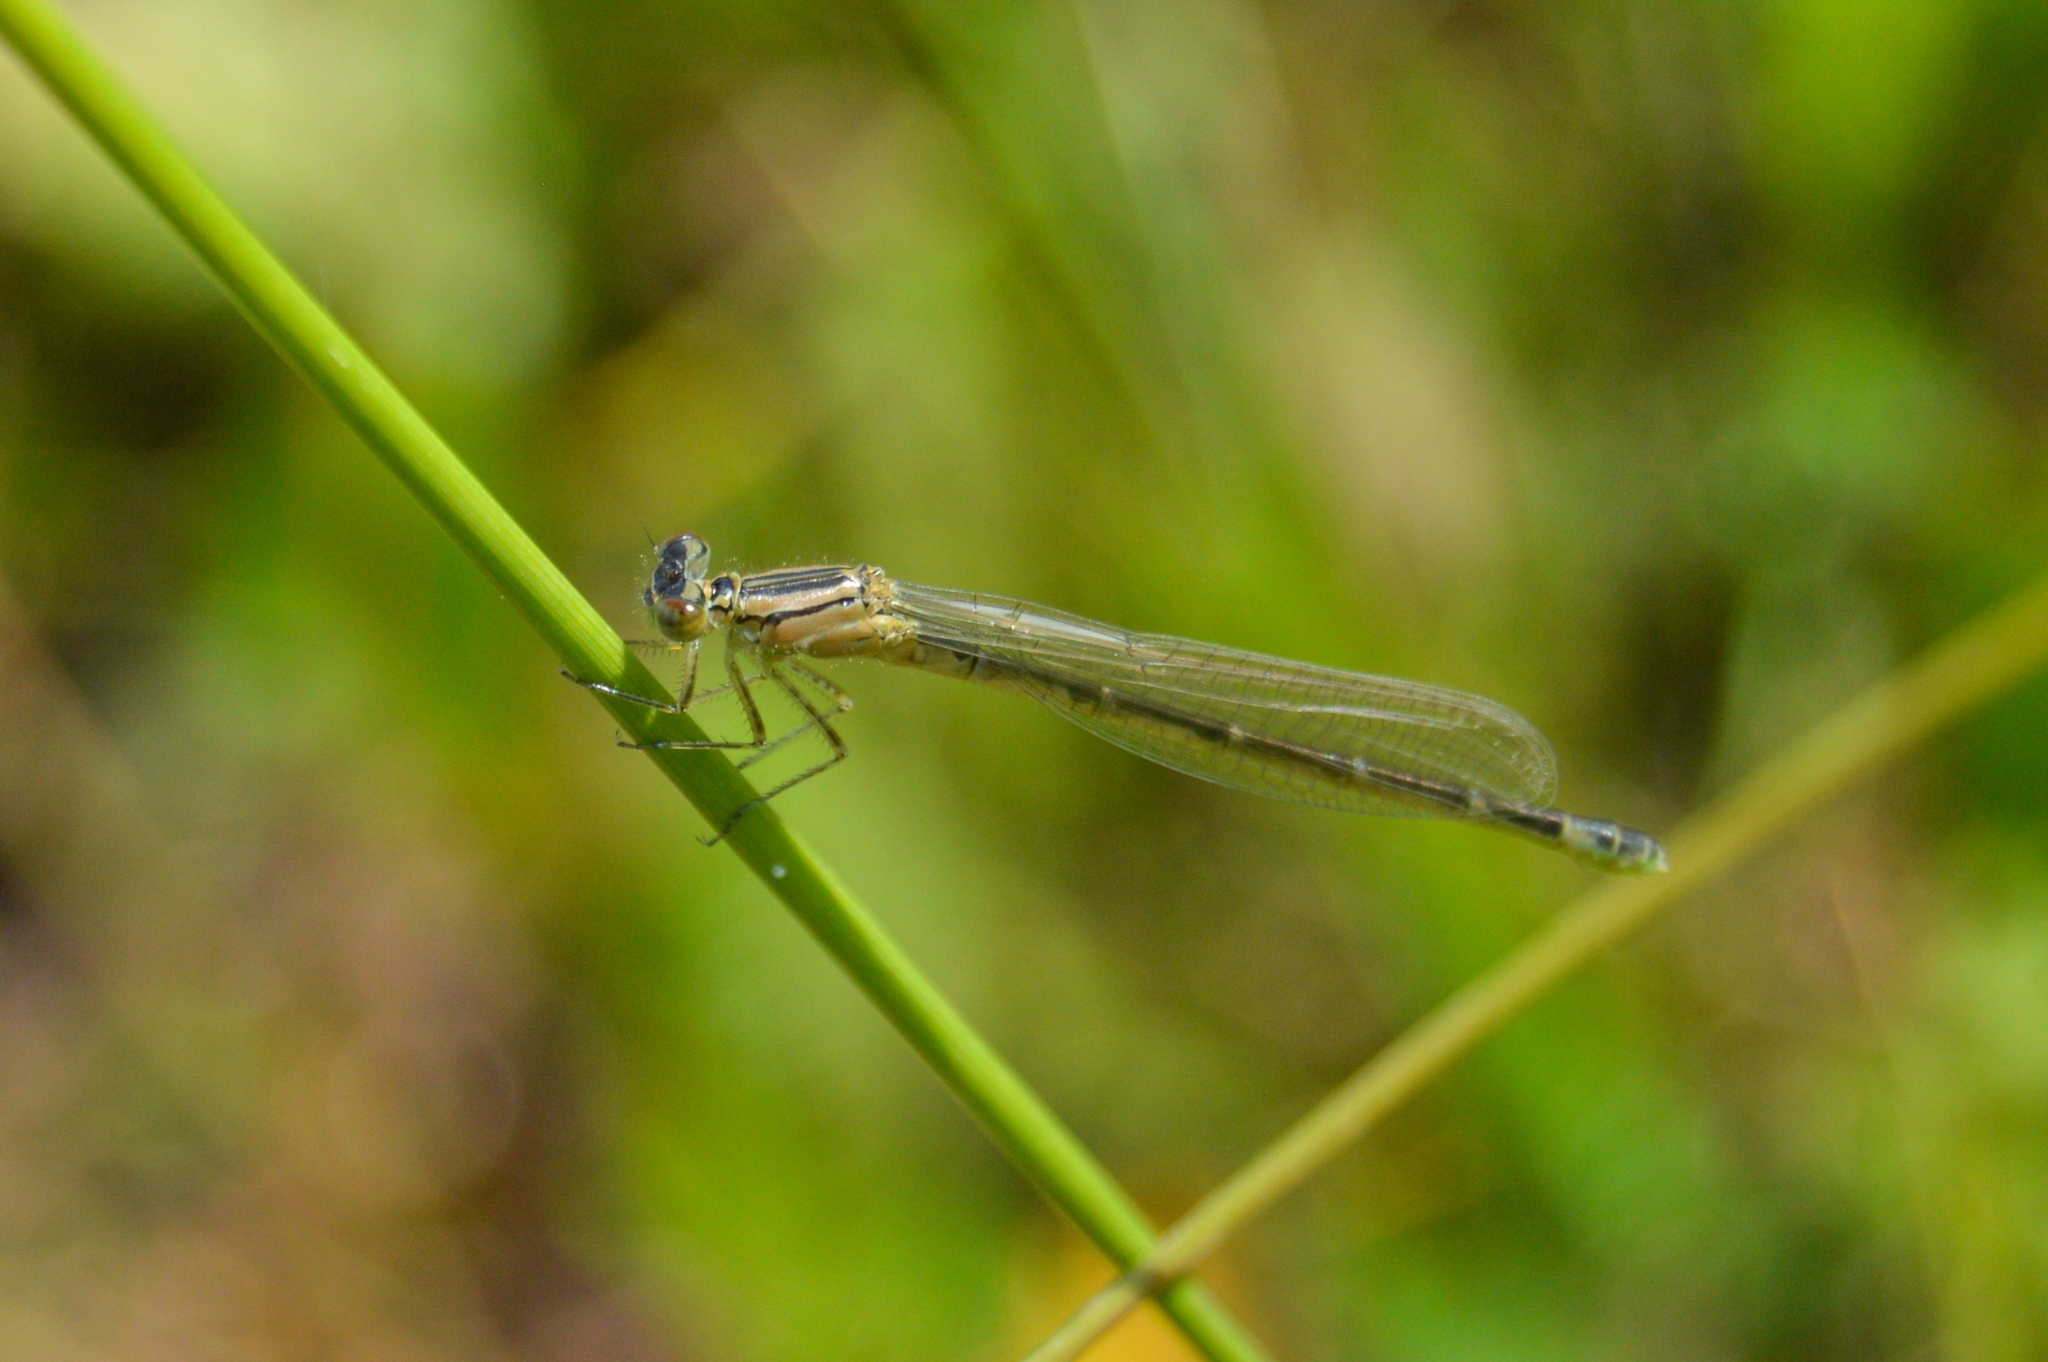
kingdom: Animalia
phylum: Arthropoda
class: Insecta
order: Odonata
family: Coenagrionidae
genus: Enallagma
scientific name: Enallagma cyathigerum
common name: Common blue damselfly
